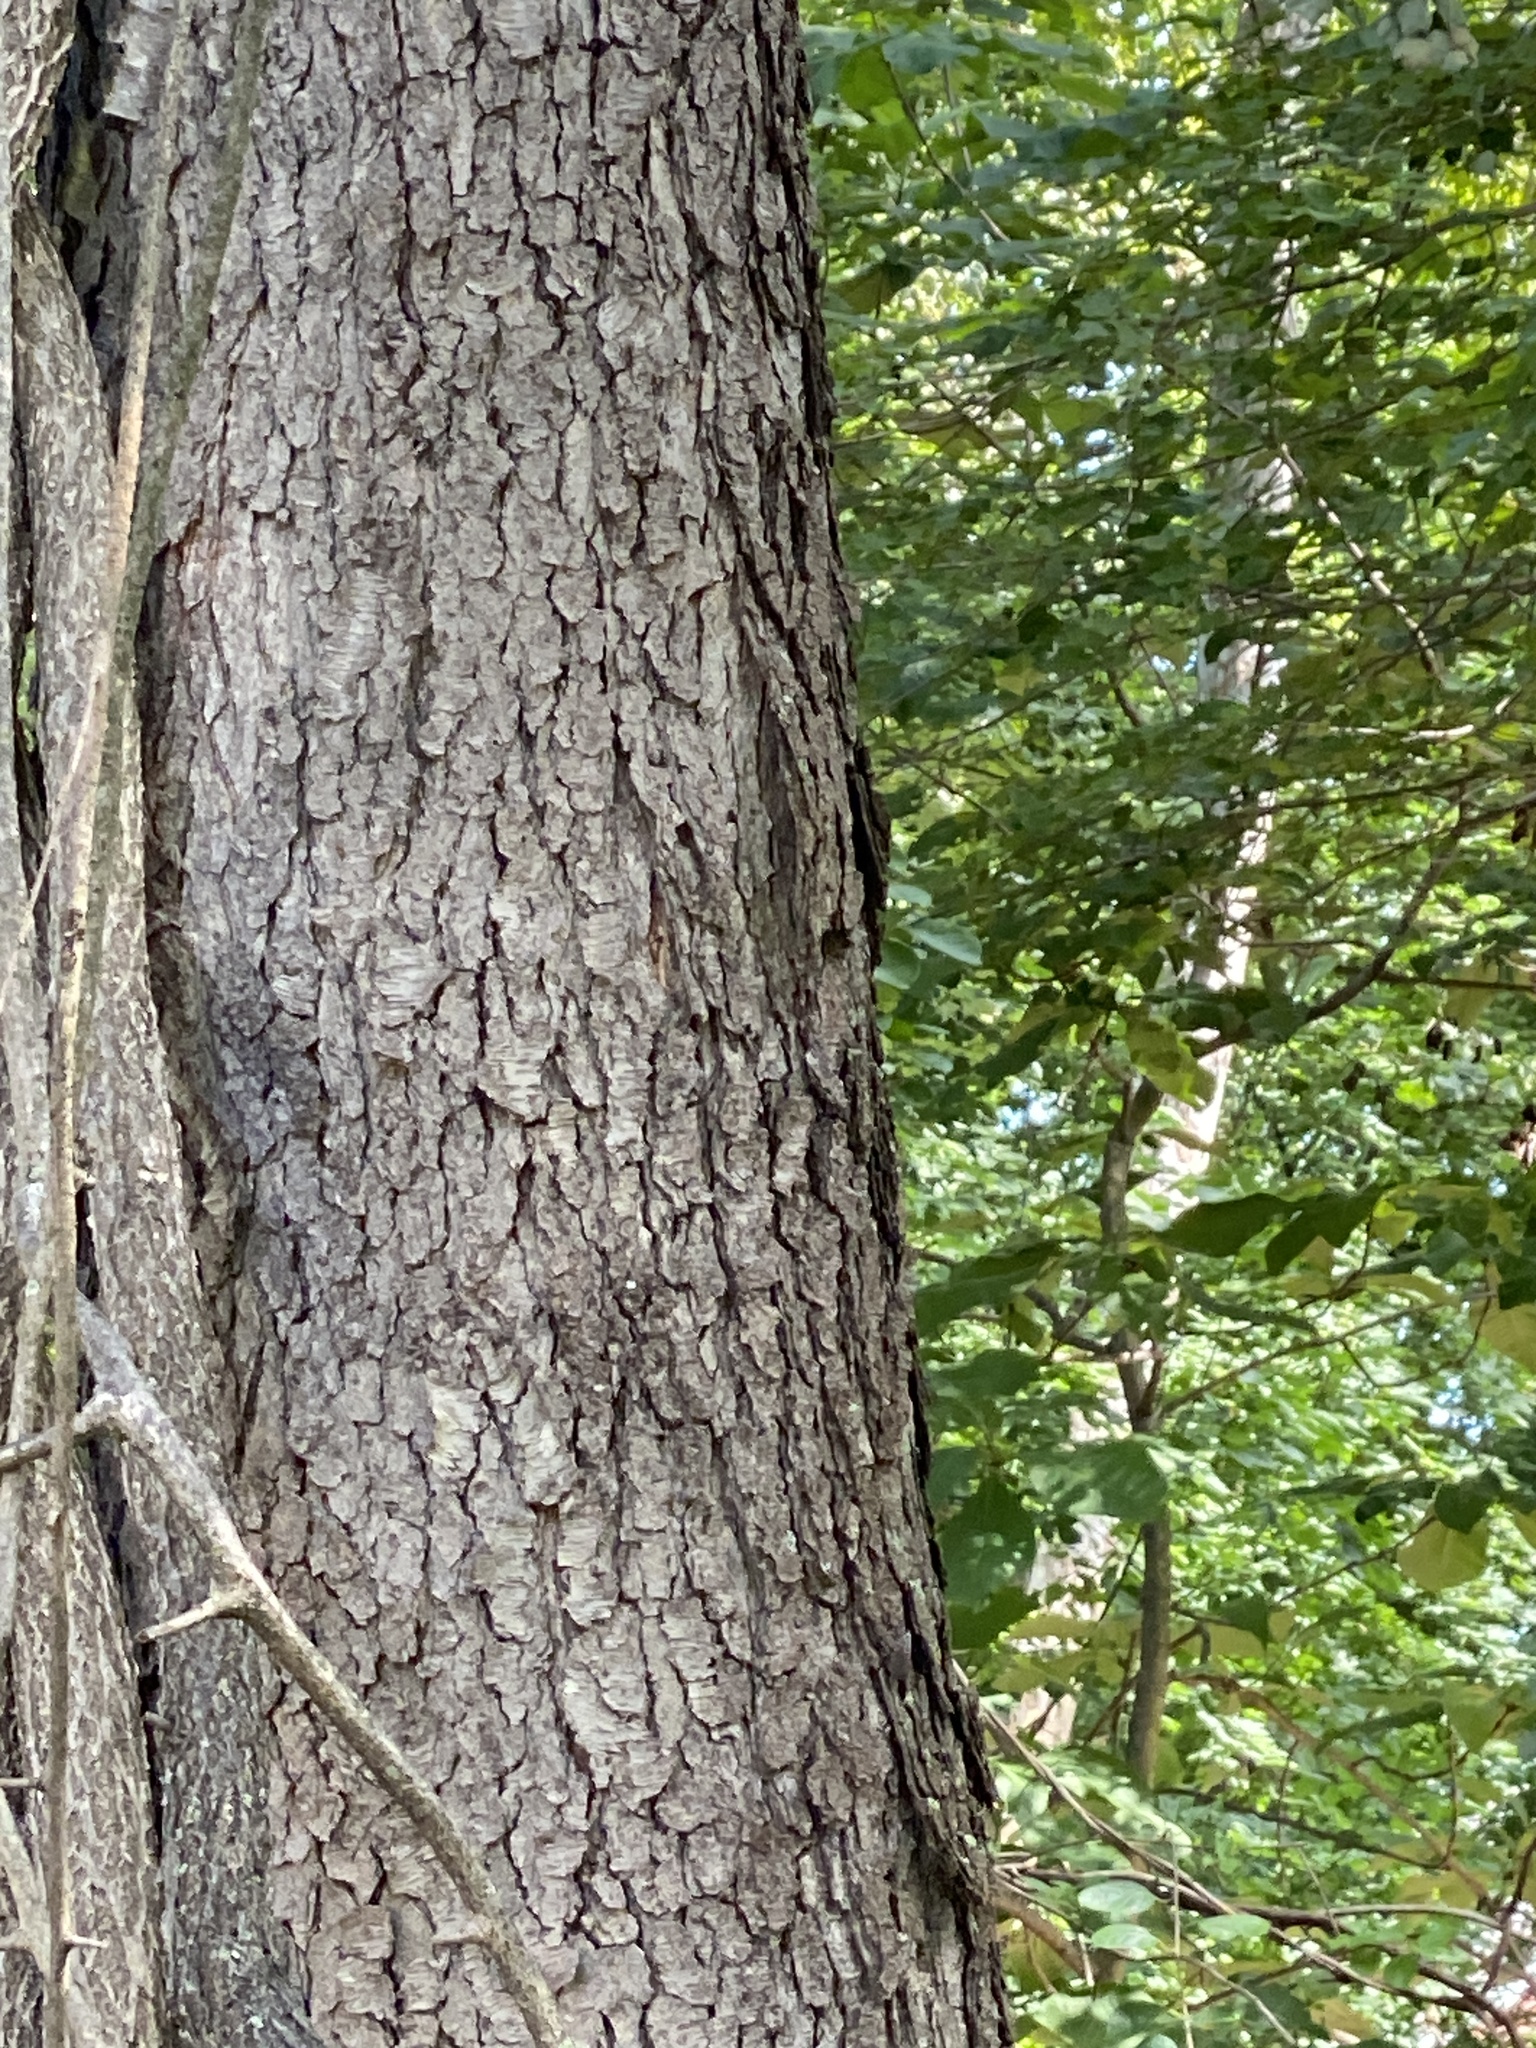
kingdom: Plantae
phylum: Tracheophyta
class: Magnoliopsida
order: Rosales
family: Rosaceae
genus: Prunus
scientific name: Prunus serotina
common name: Black cherry
